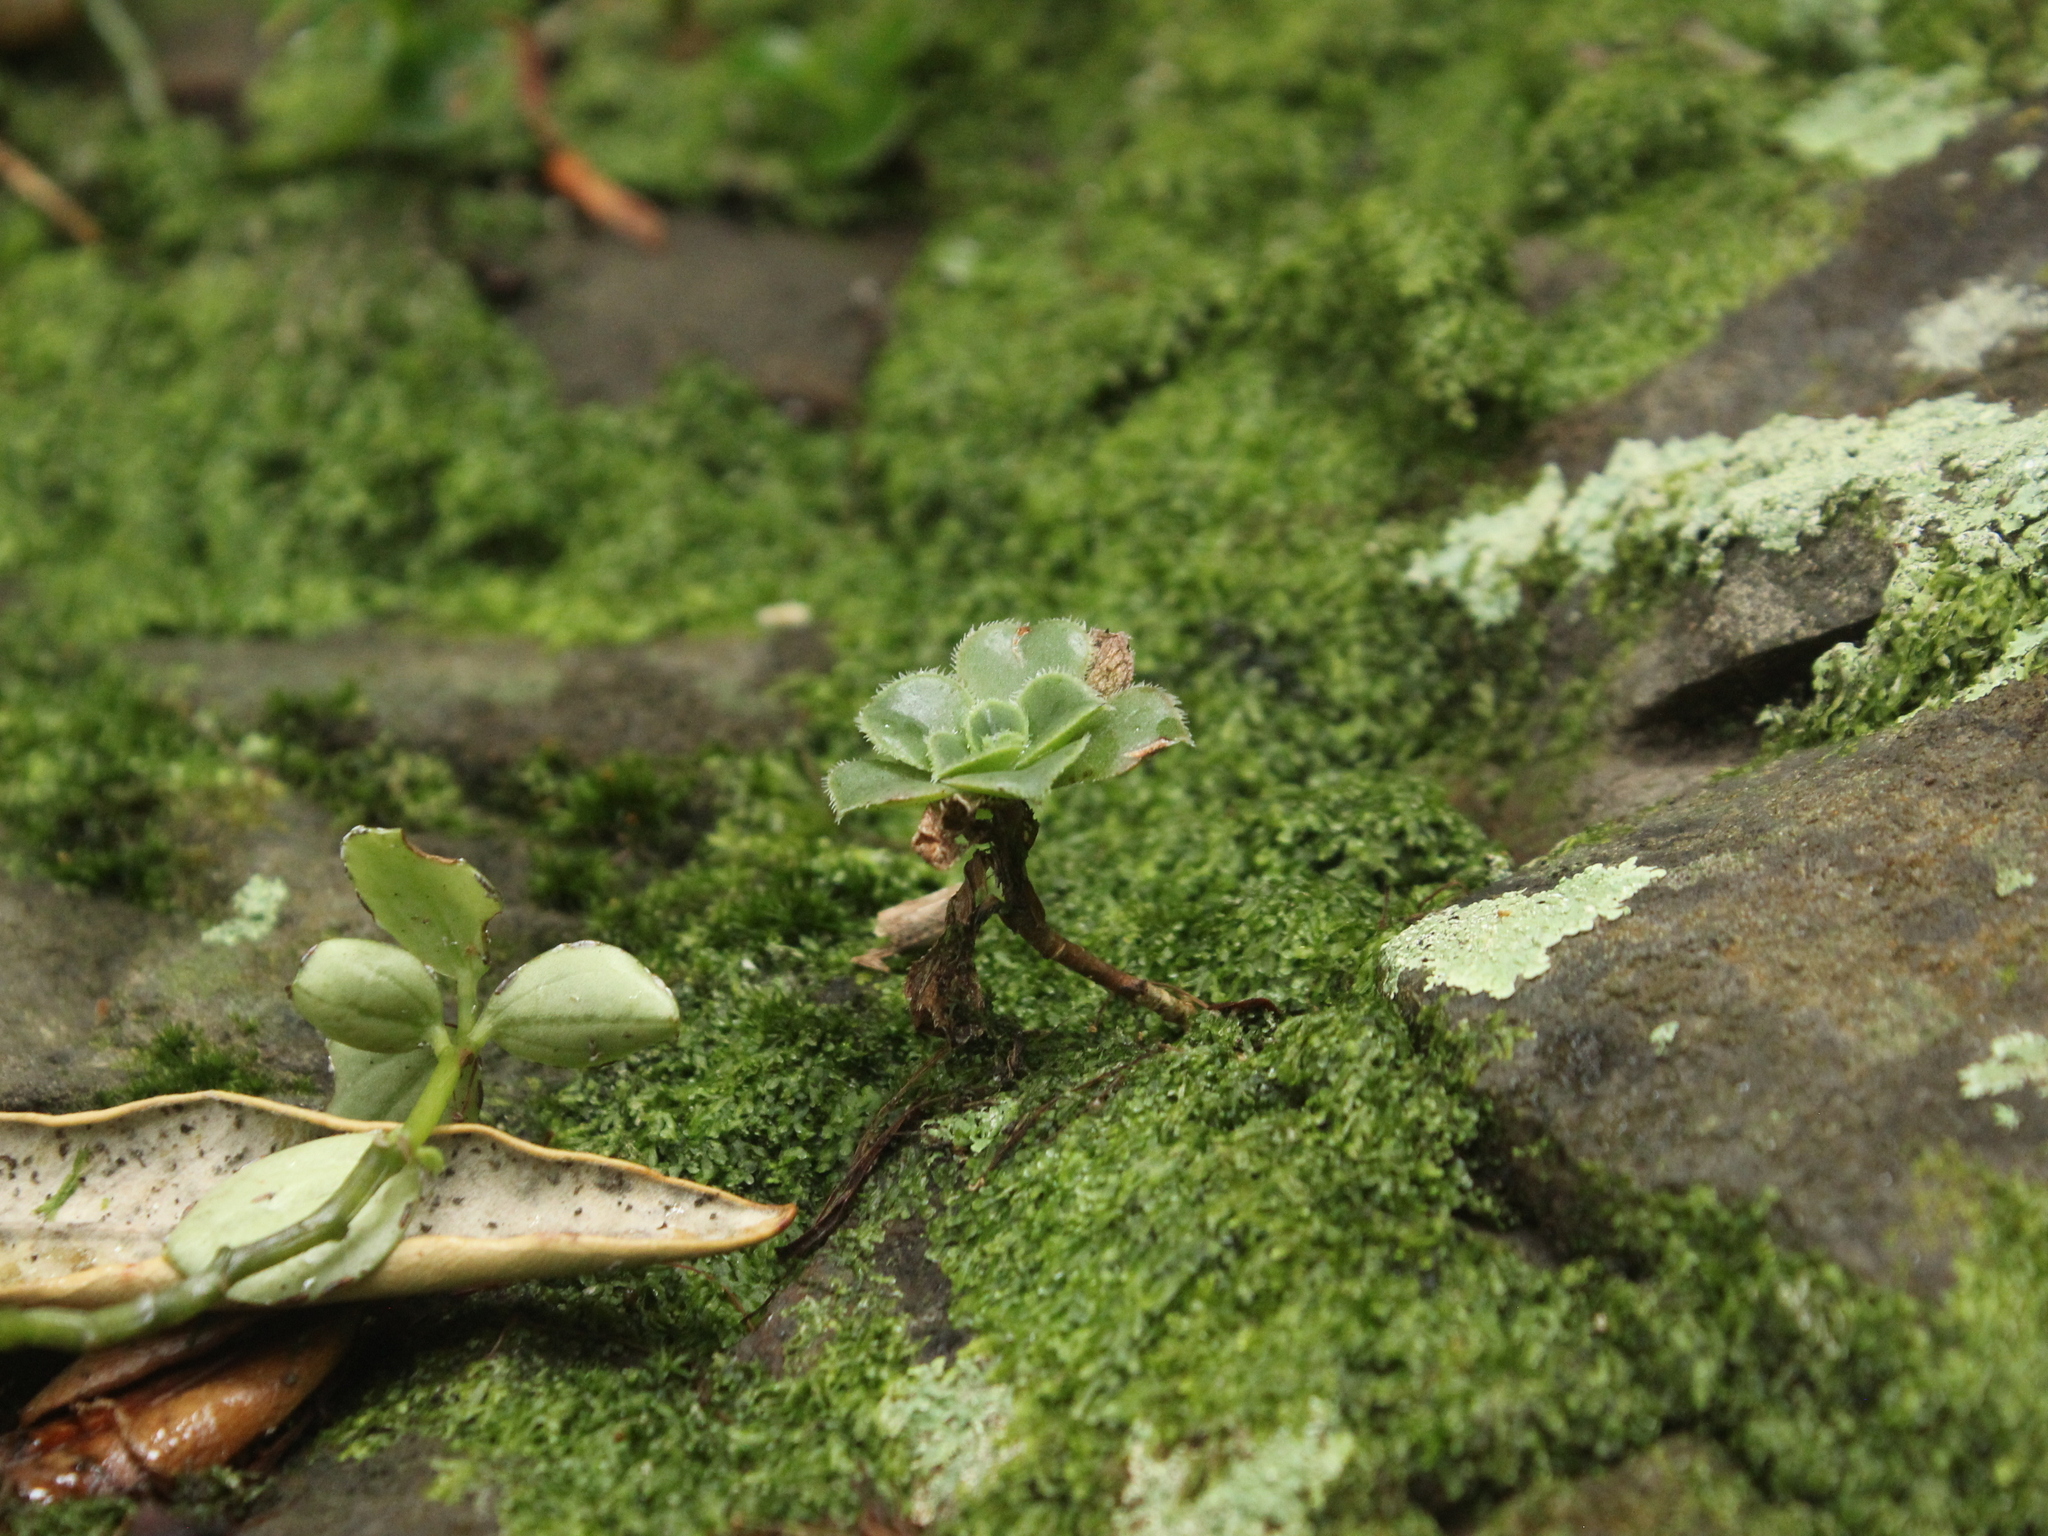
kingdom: Plantae
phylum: Tracheophyta
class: Magnoliopsida
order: Saxifragales
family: Crassulaceae
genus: Aeonium
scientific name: Aeonium arboreum
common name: Tree aeonium
